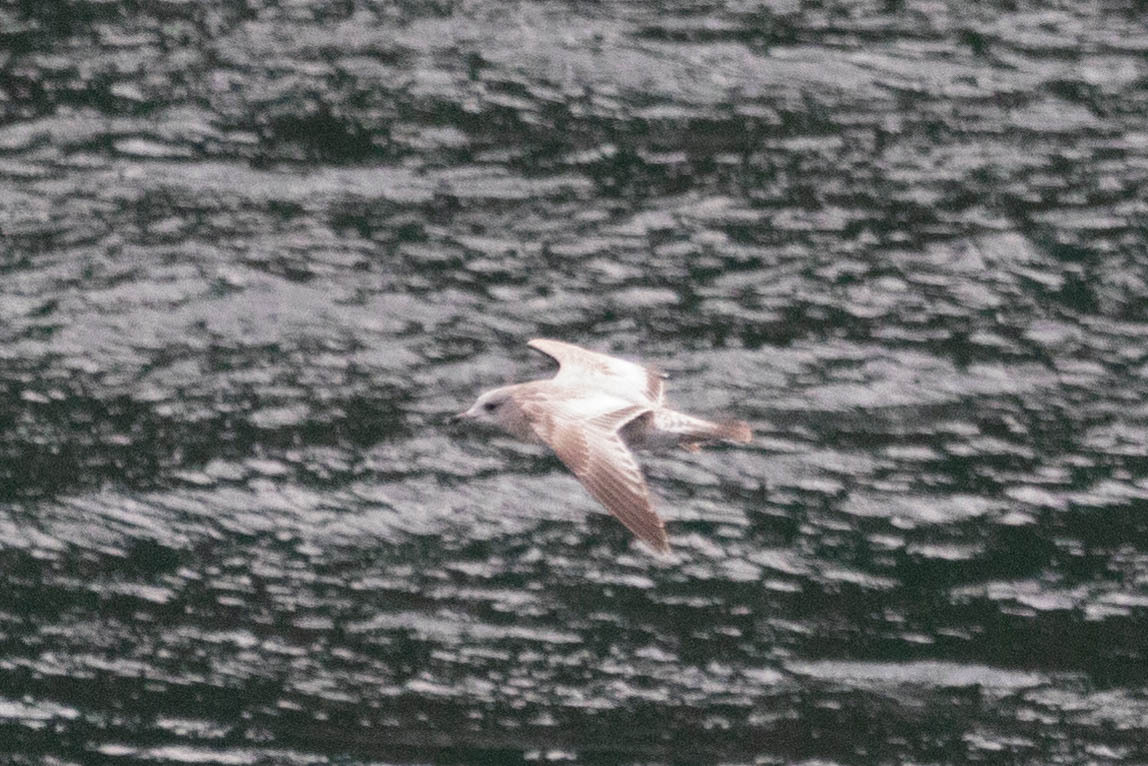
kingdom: Animalia
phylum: Chordata
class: Aves
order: Charadriiformes
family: Laridae
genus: Larus
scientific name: Larus brachyrhynchus
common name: Short-billed gull
